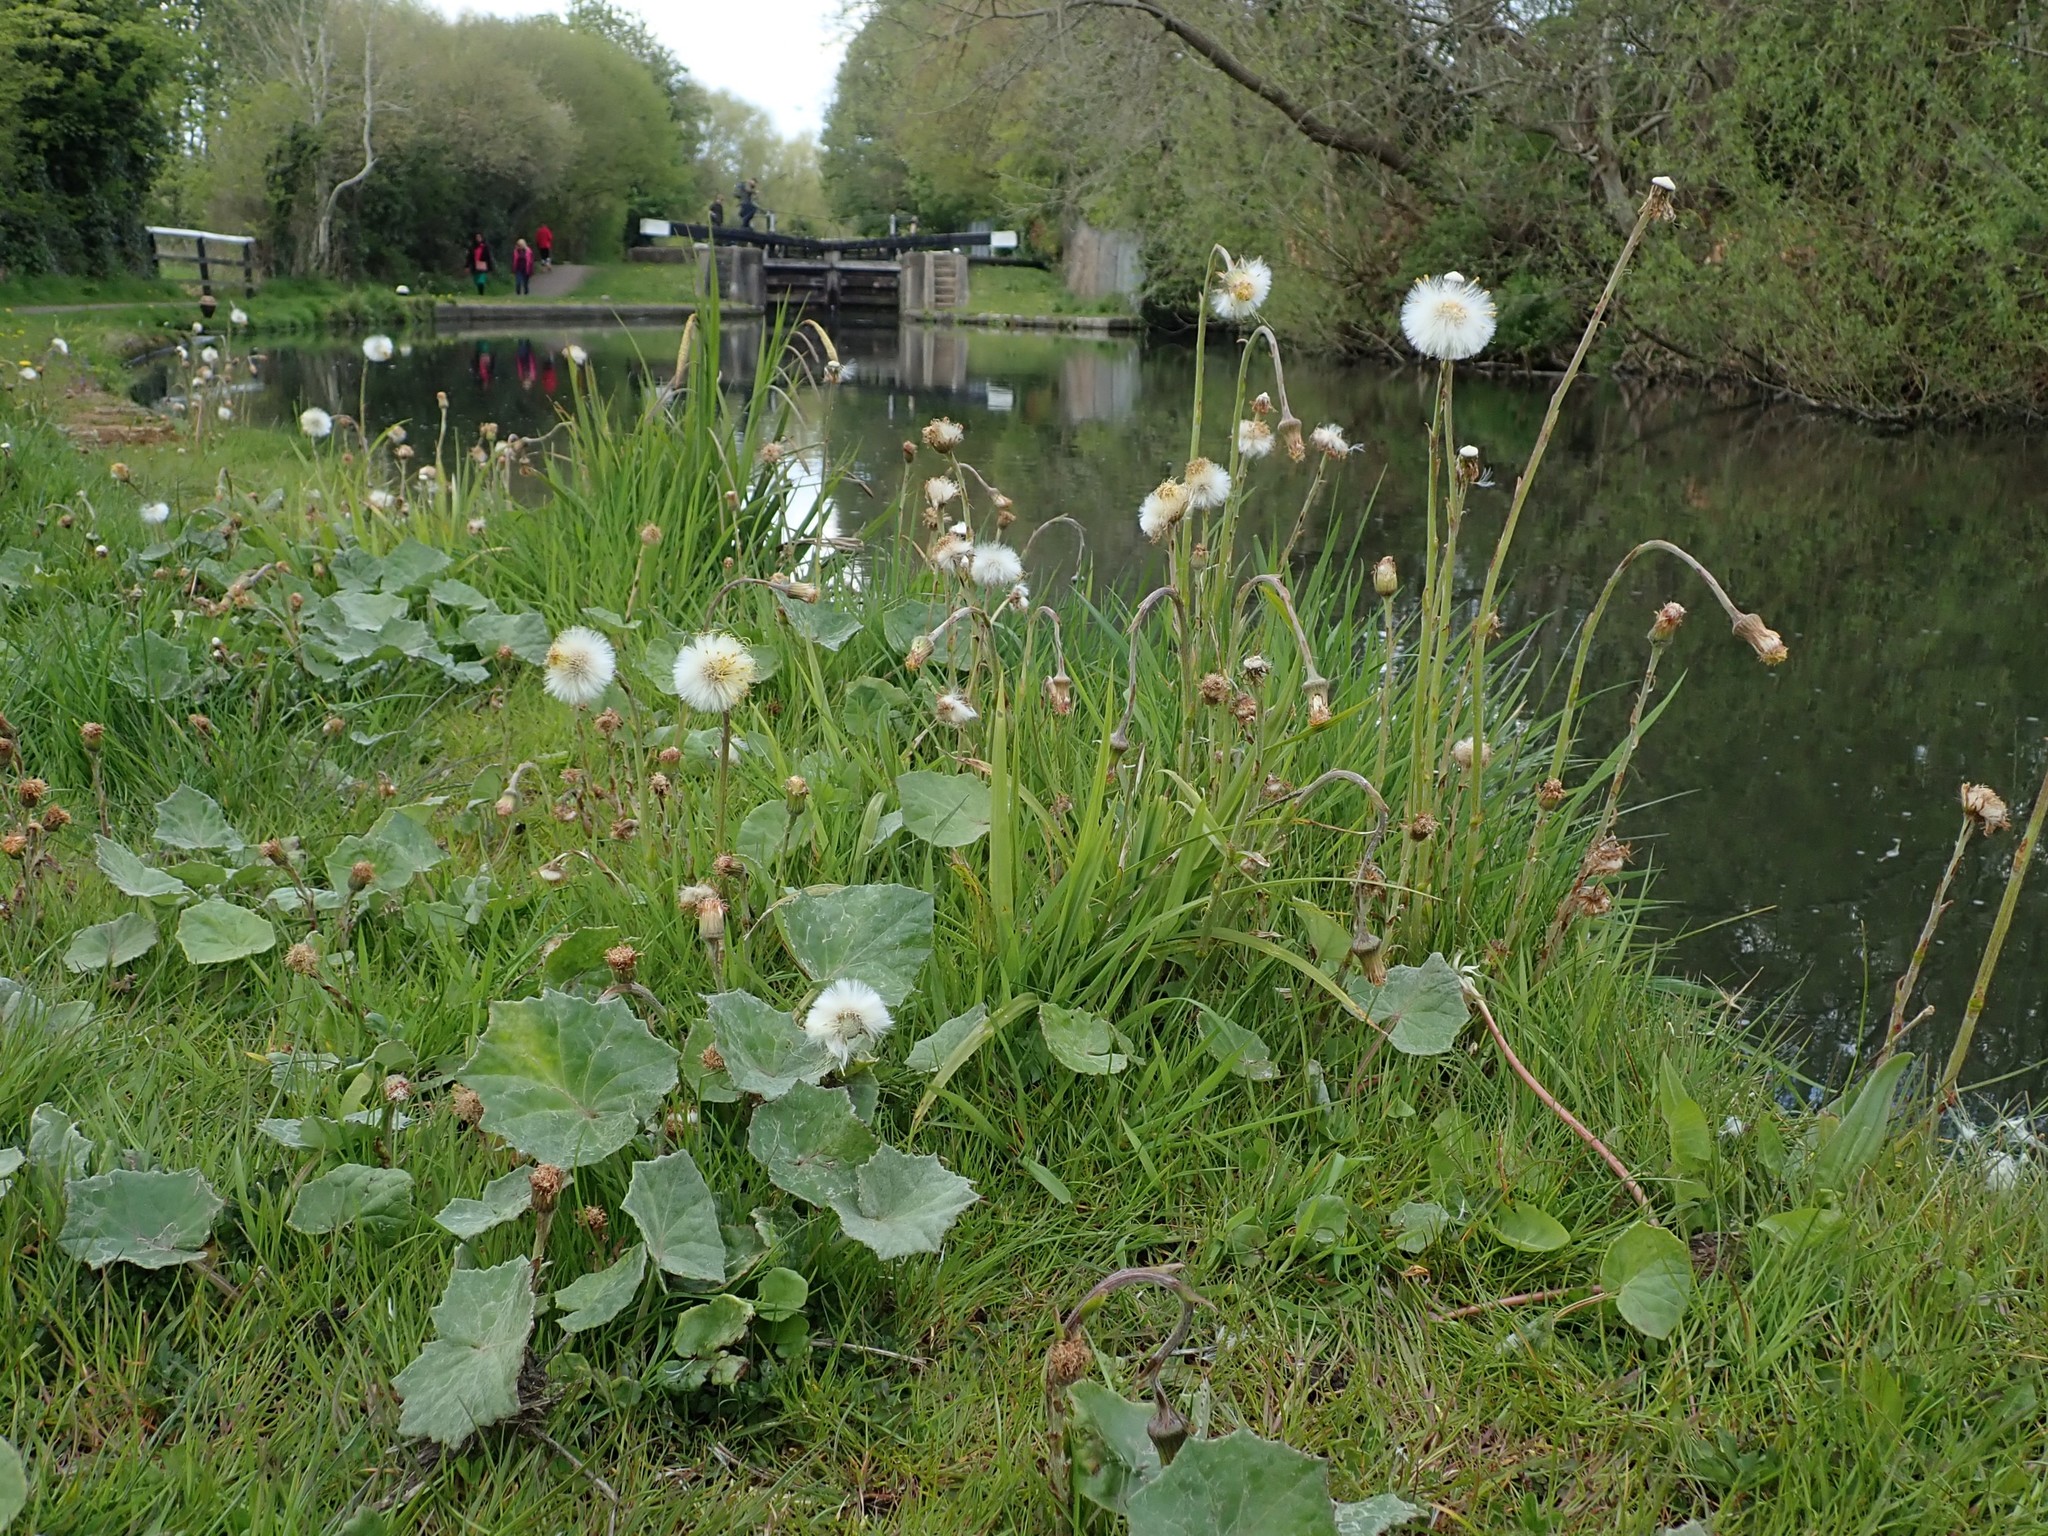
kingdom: Plantae
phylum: Tracheophyta
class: Magnoliopsida
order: Asterales
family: Asteraceae
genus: Tussilago
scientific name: Tussilago farfara
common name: Coltsfoot
